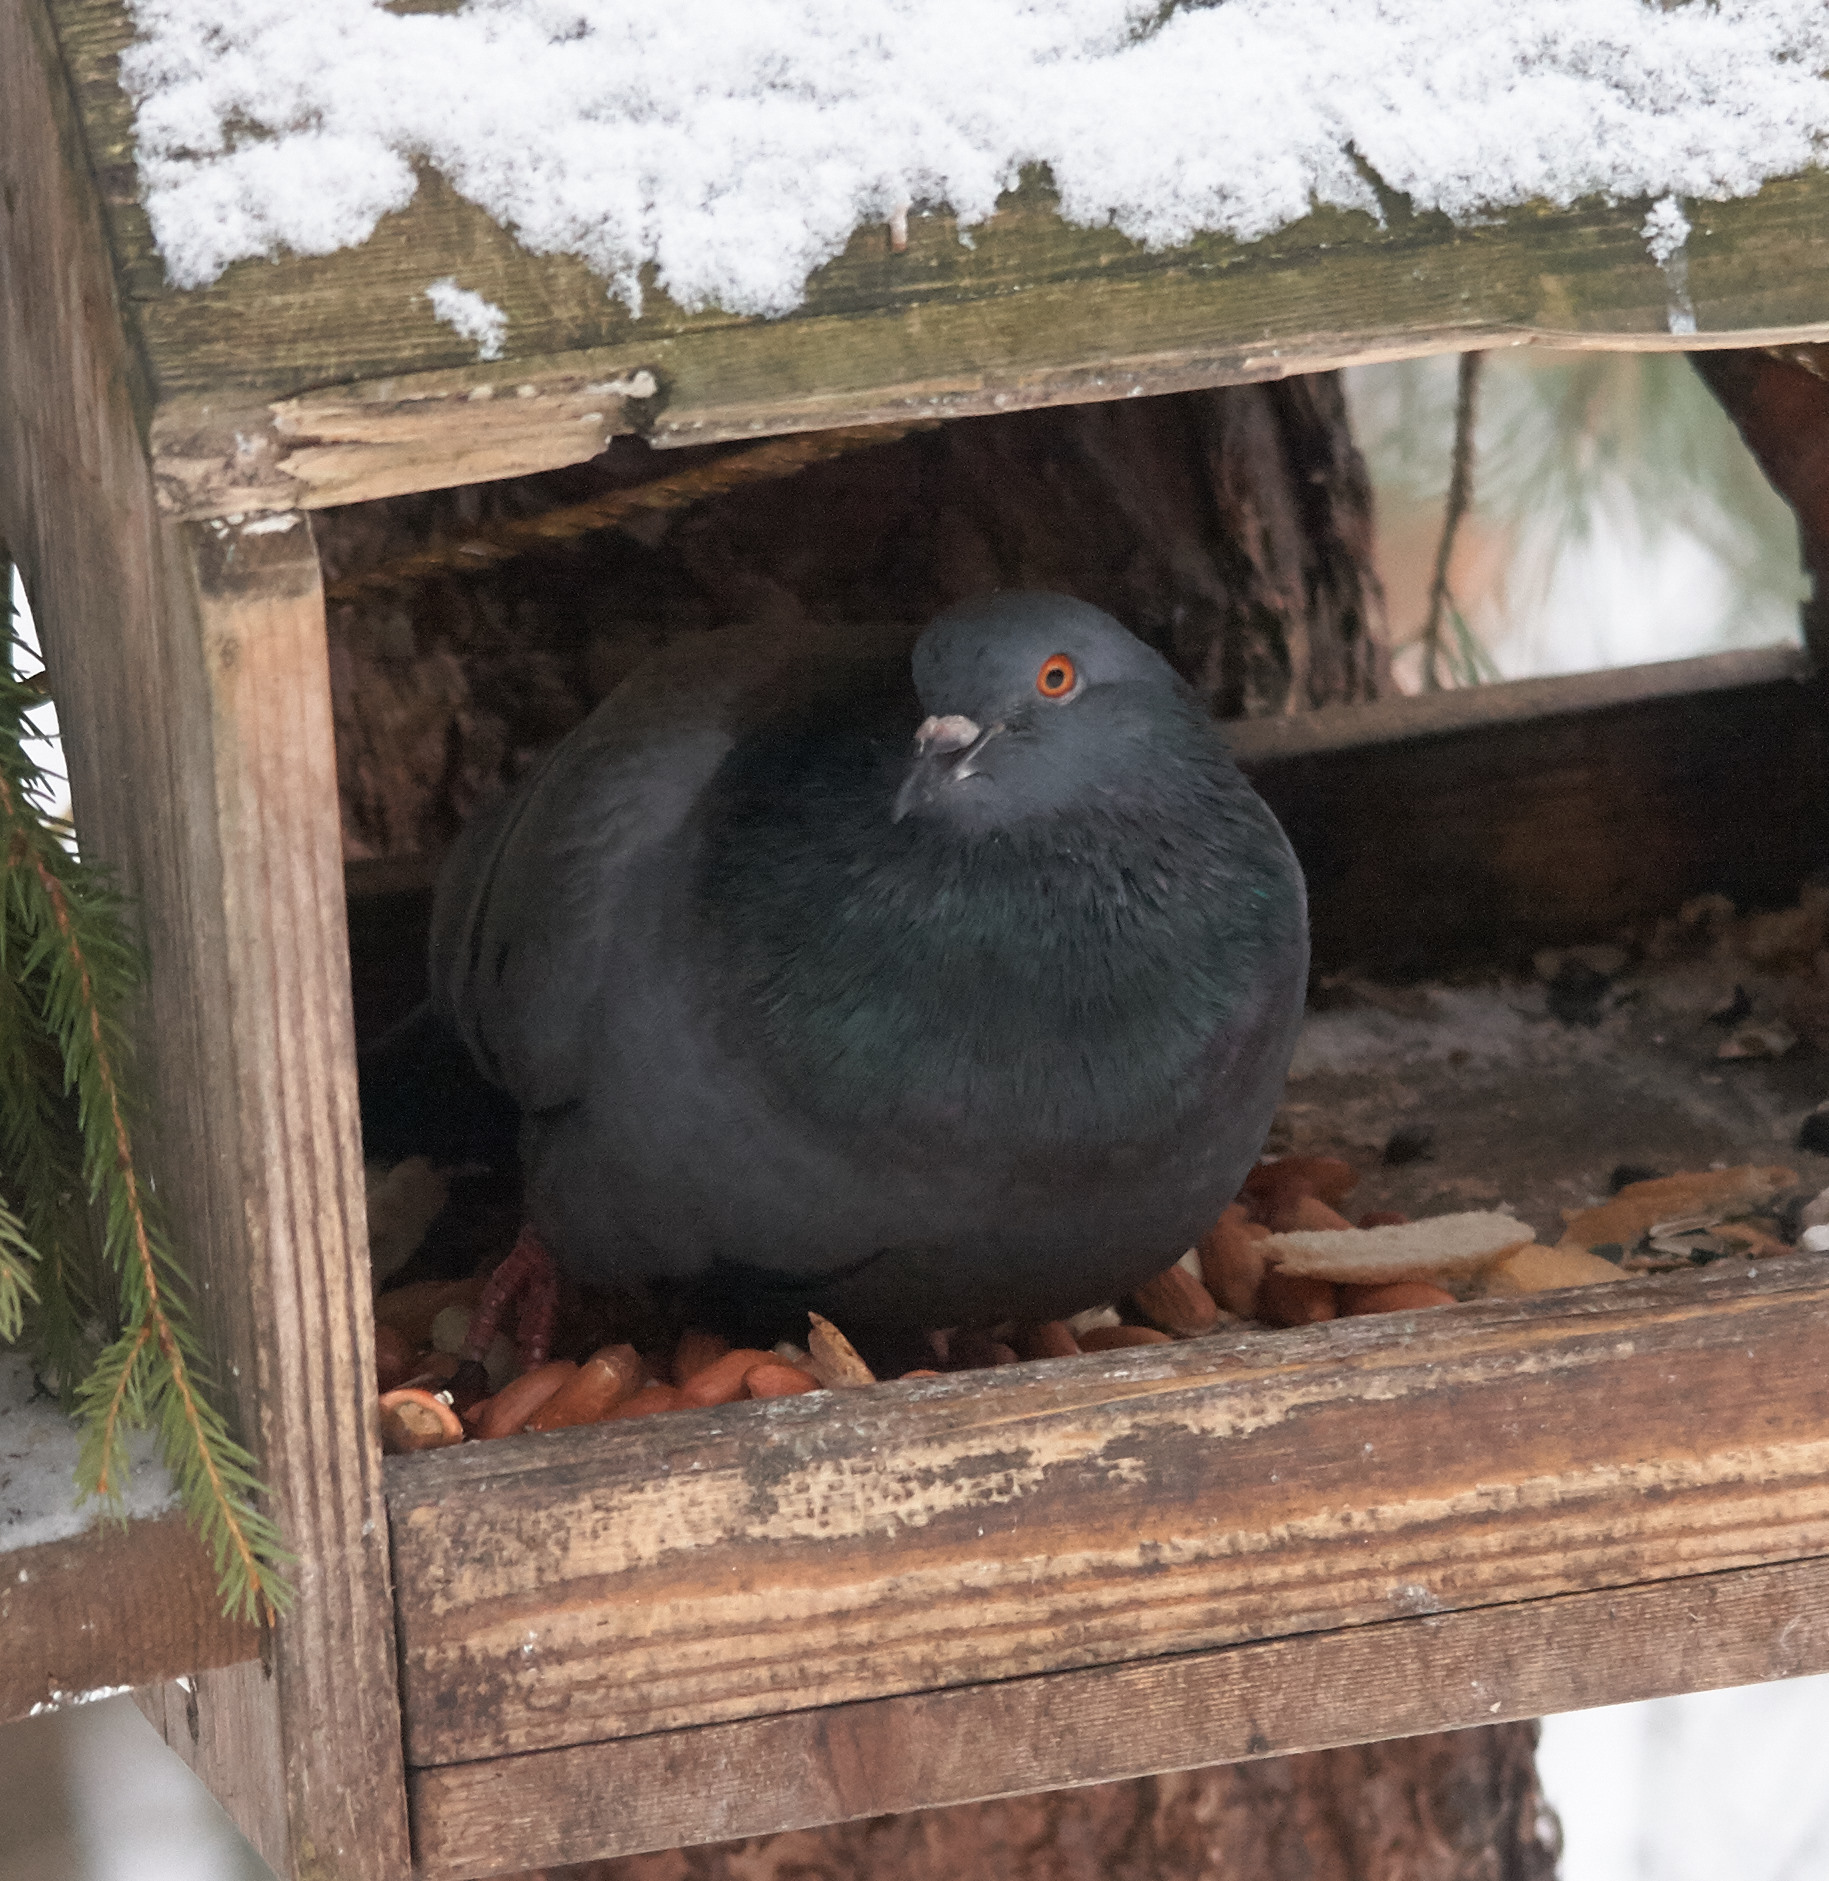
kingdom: Animalia
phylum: Chordata
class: Aves
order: Columbiformes
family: Columbidae
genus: Columba
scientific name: Columba livia
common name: Rock pigeon
